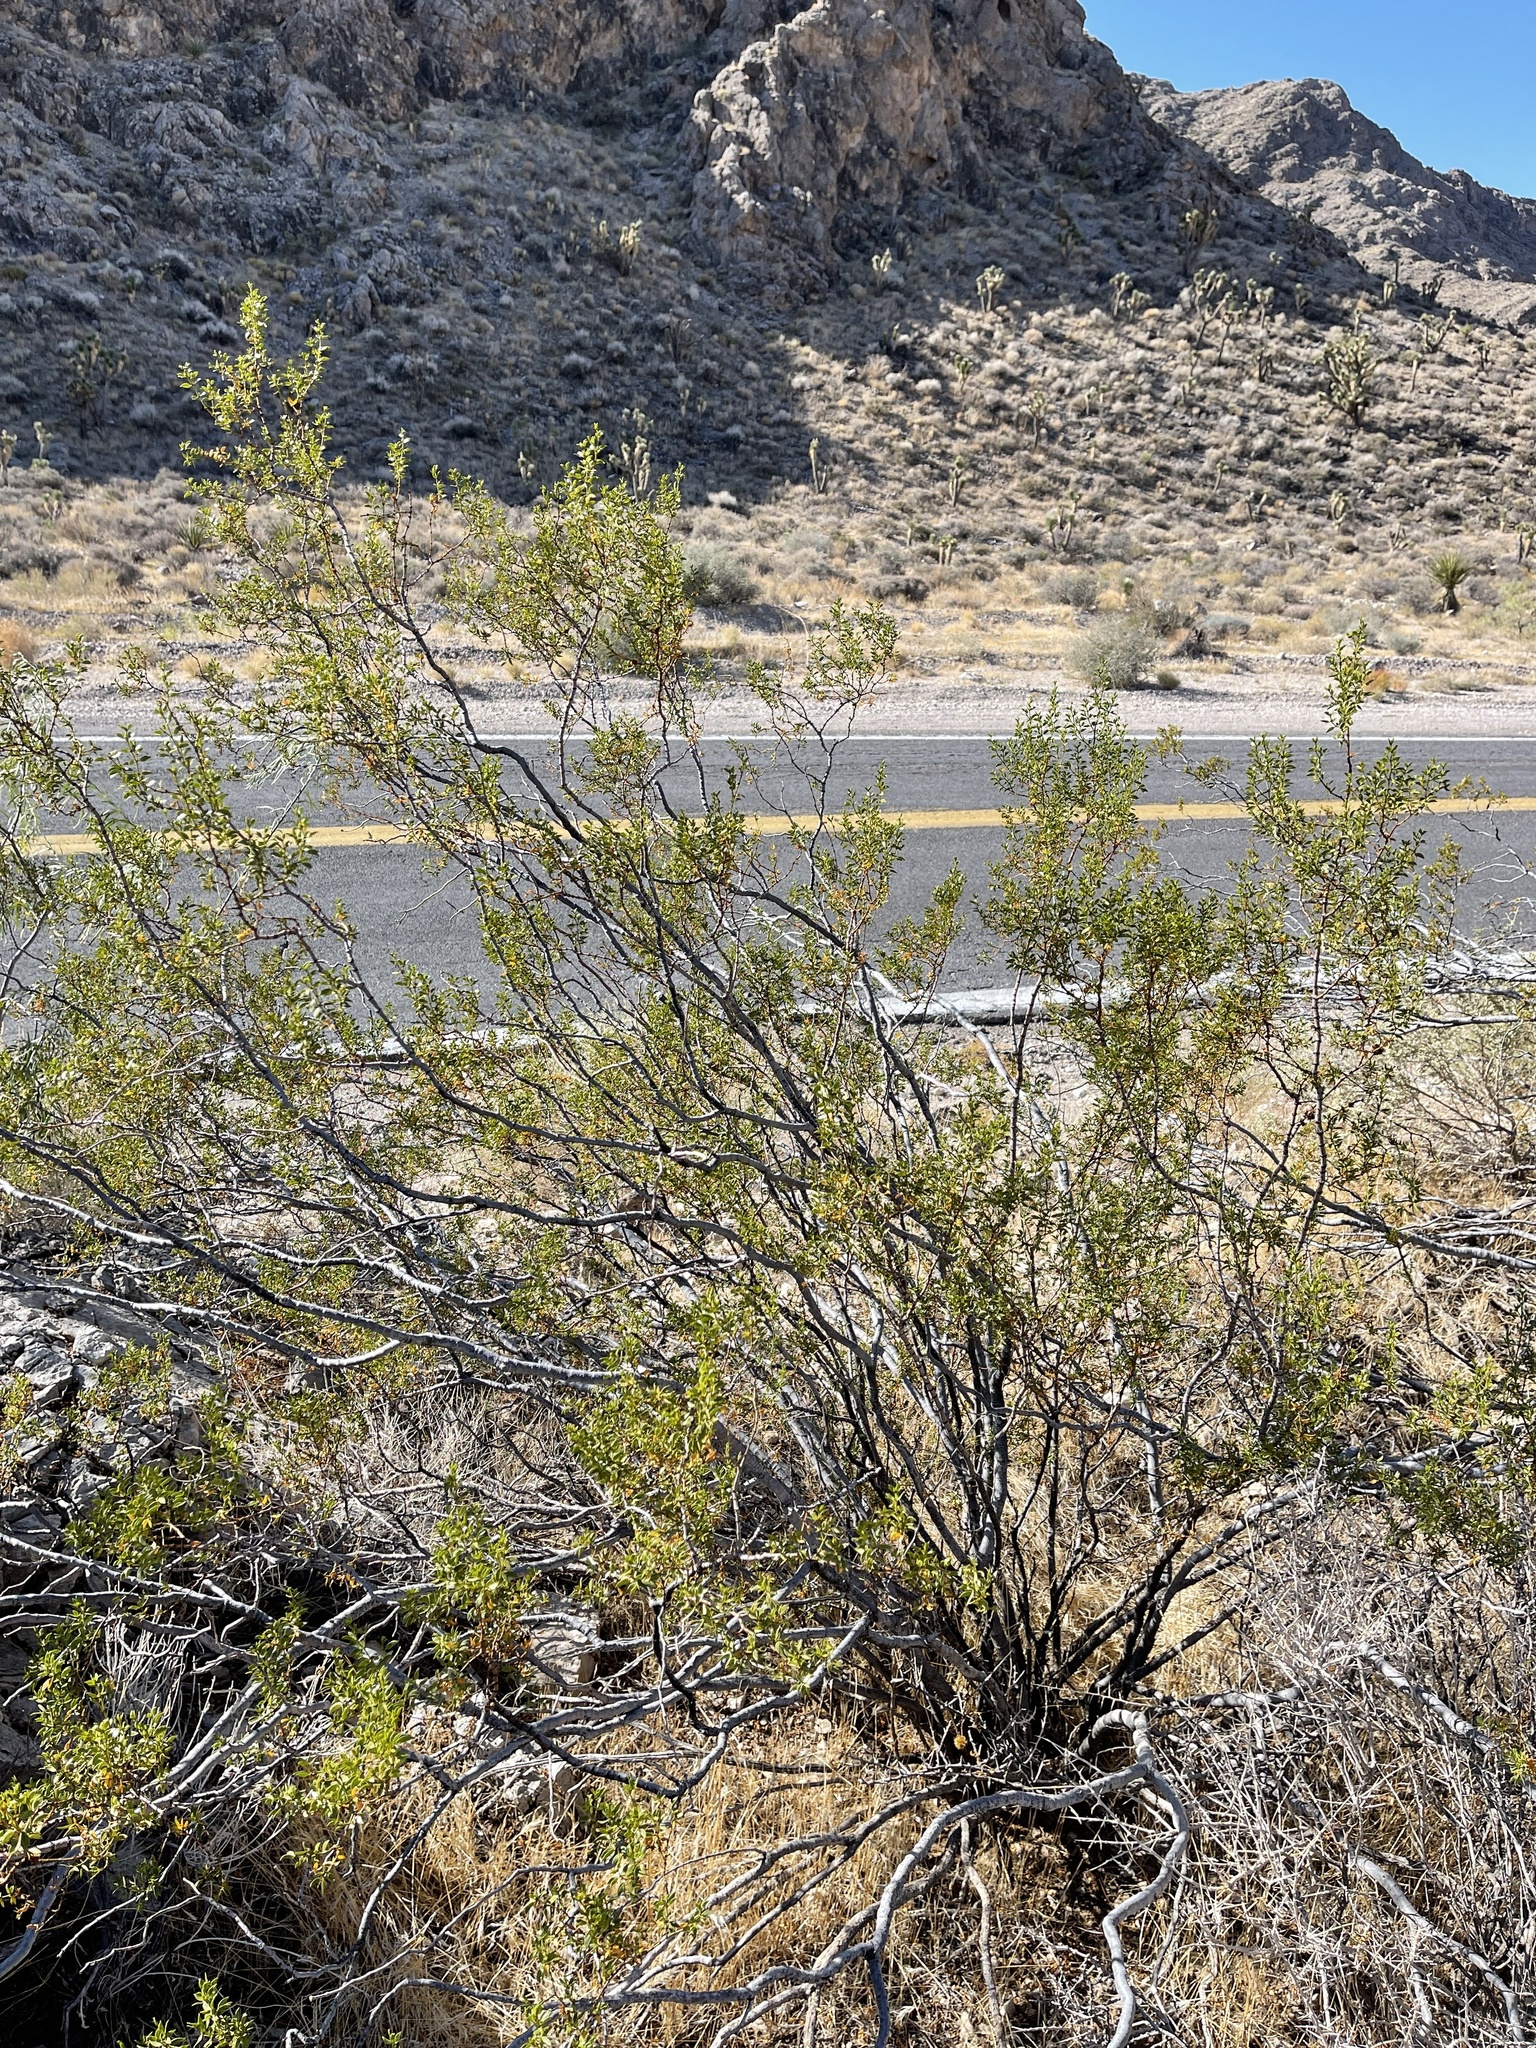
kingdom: Plantae
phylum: Tracheophyta
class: Magnoliopsida
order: Zygophyllales
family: Zygophyllaceae
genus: Larrea
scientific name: Larrea tridentata
